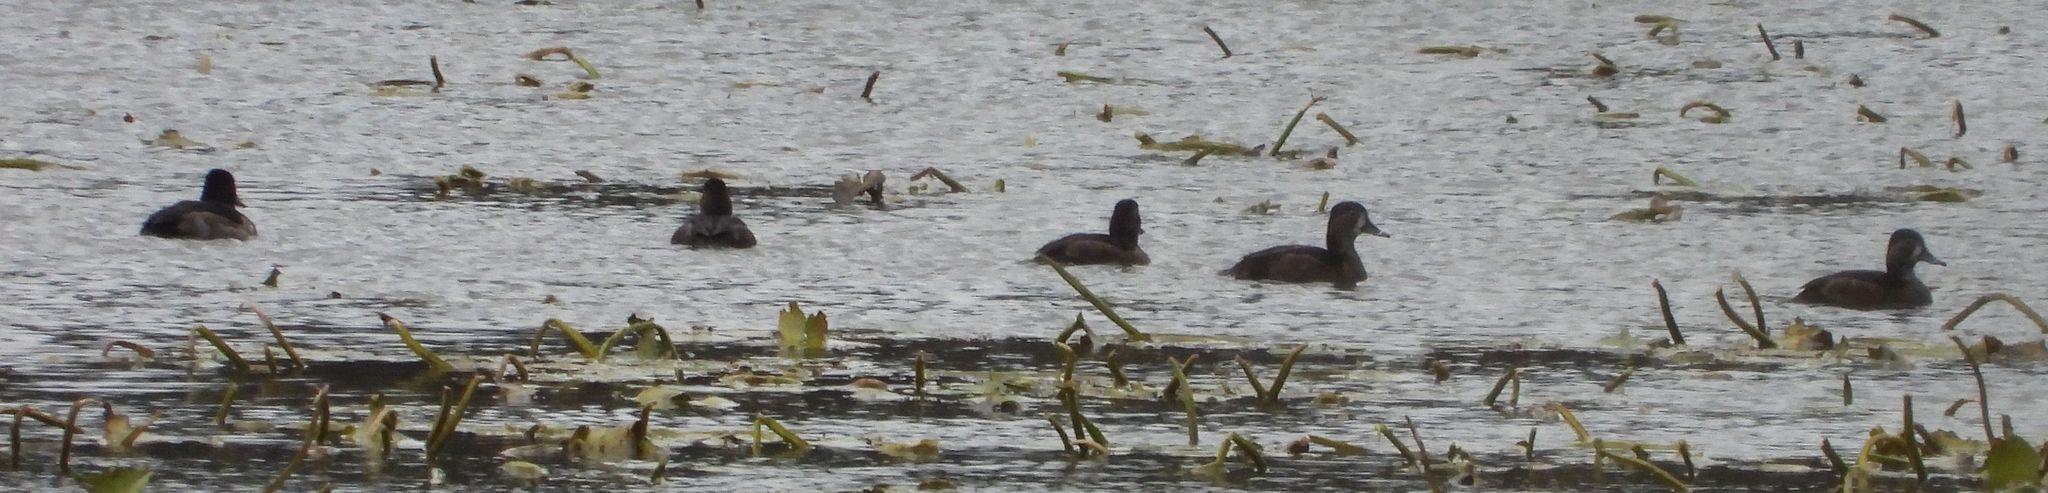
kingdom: Animalia
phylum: Chordata
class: Aves
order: Anseriformes
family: Anatidae
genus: Aythya
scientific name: Aythya collaris
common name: Ring-necked duck
